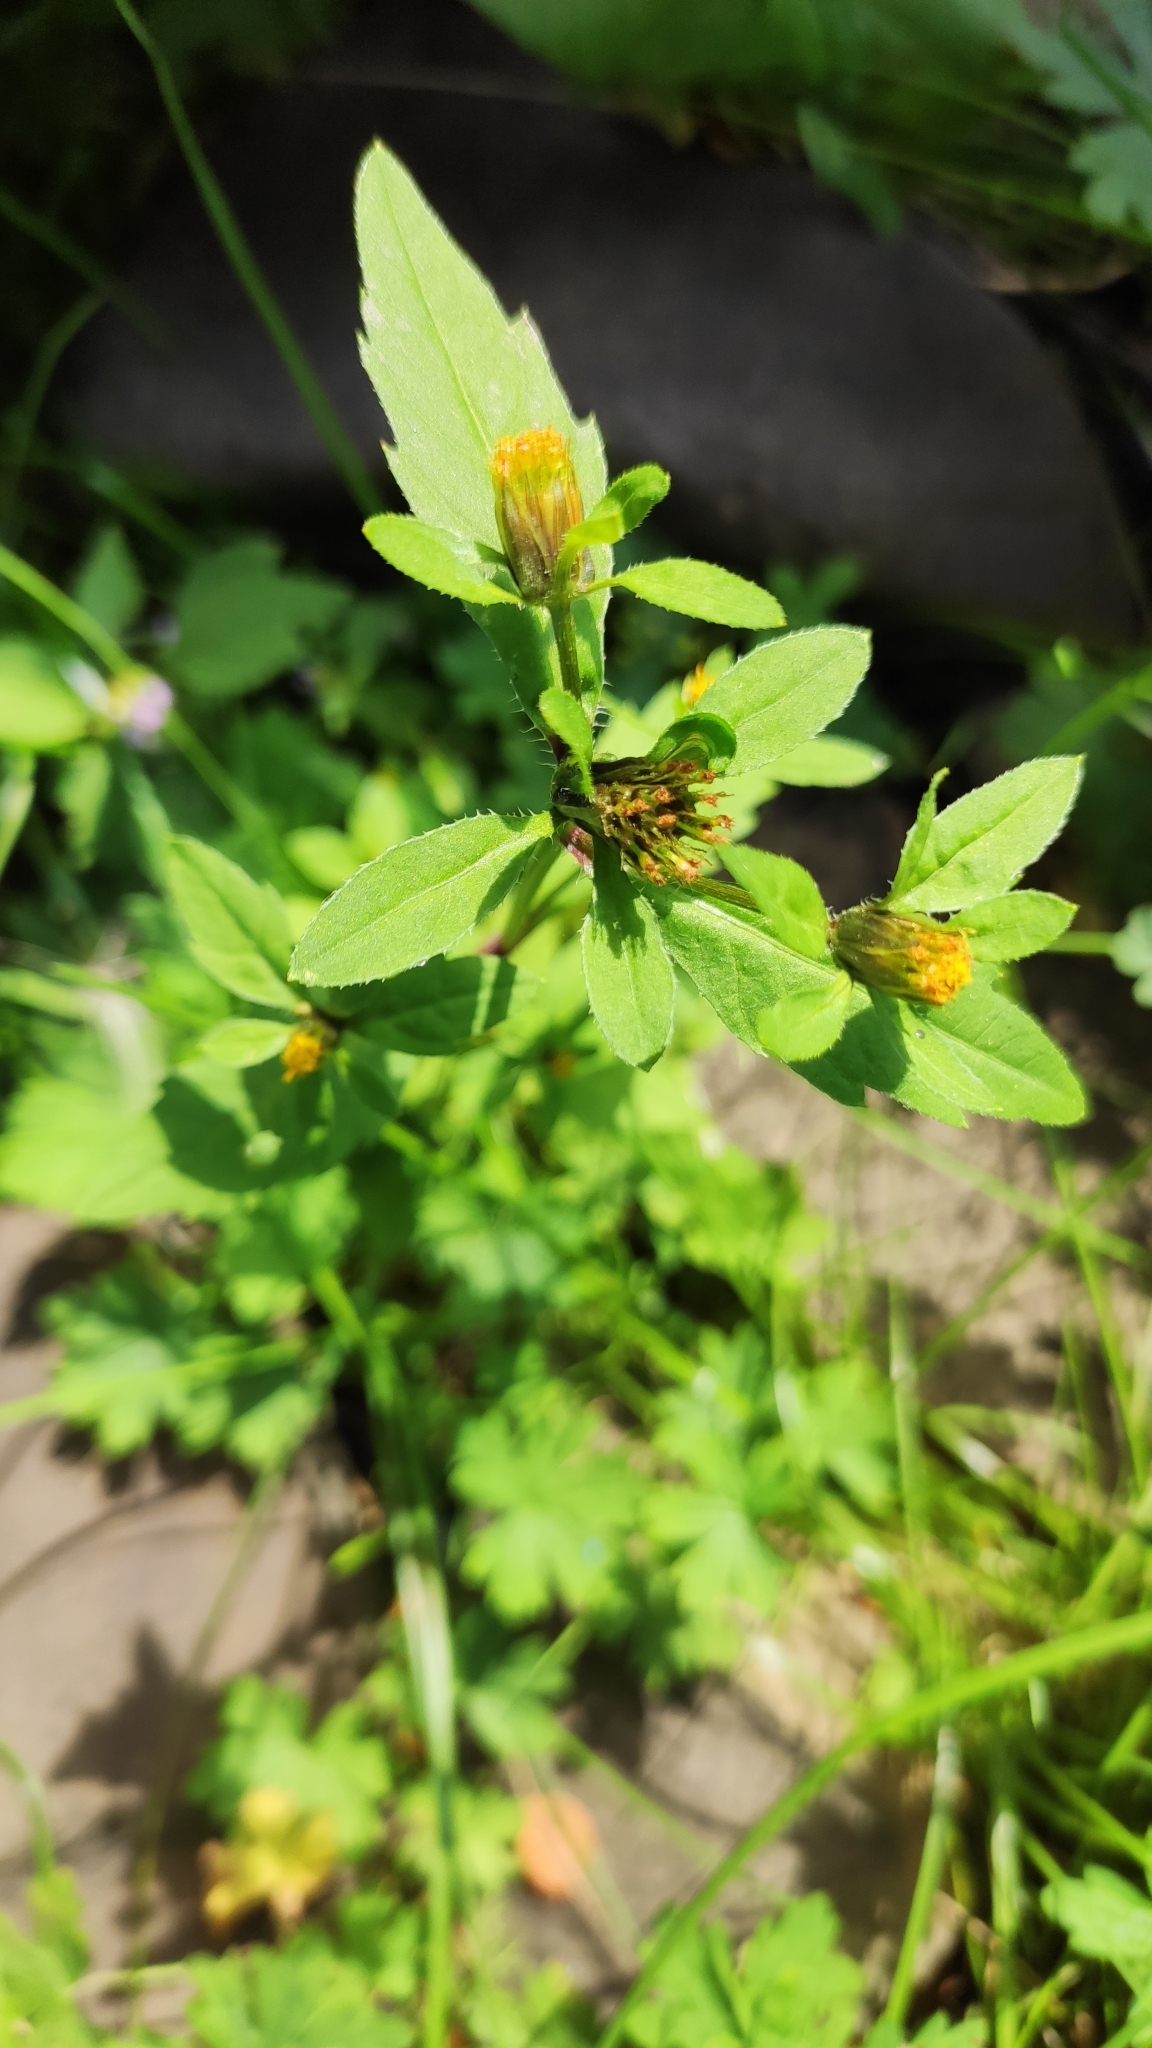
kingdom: Plantae
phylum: Tracheophyta
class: Magnoliopsida
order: Asterales
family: Asteraceae
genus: Bidens
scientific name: Bidens tripartita
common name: Trifid bur-marigold
